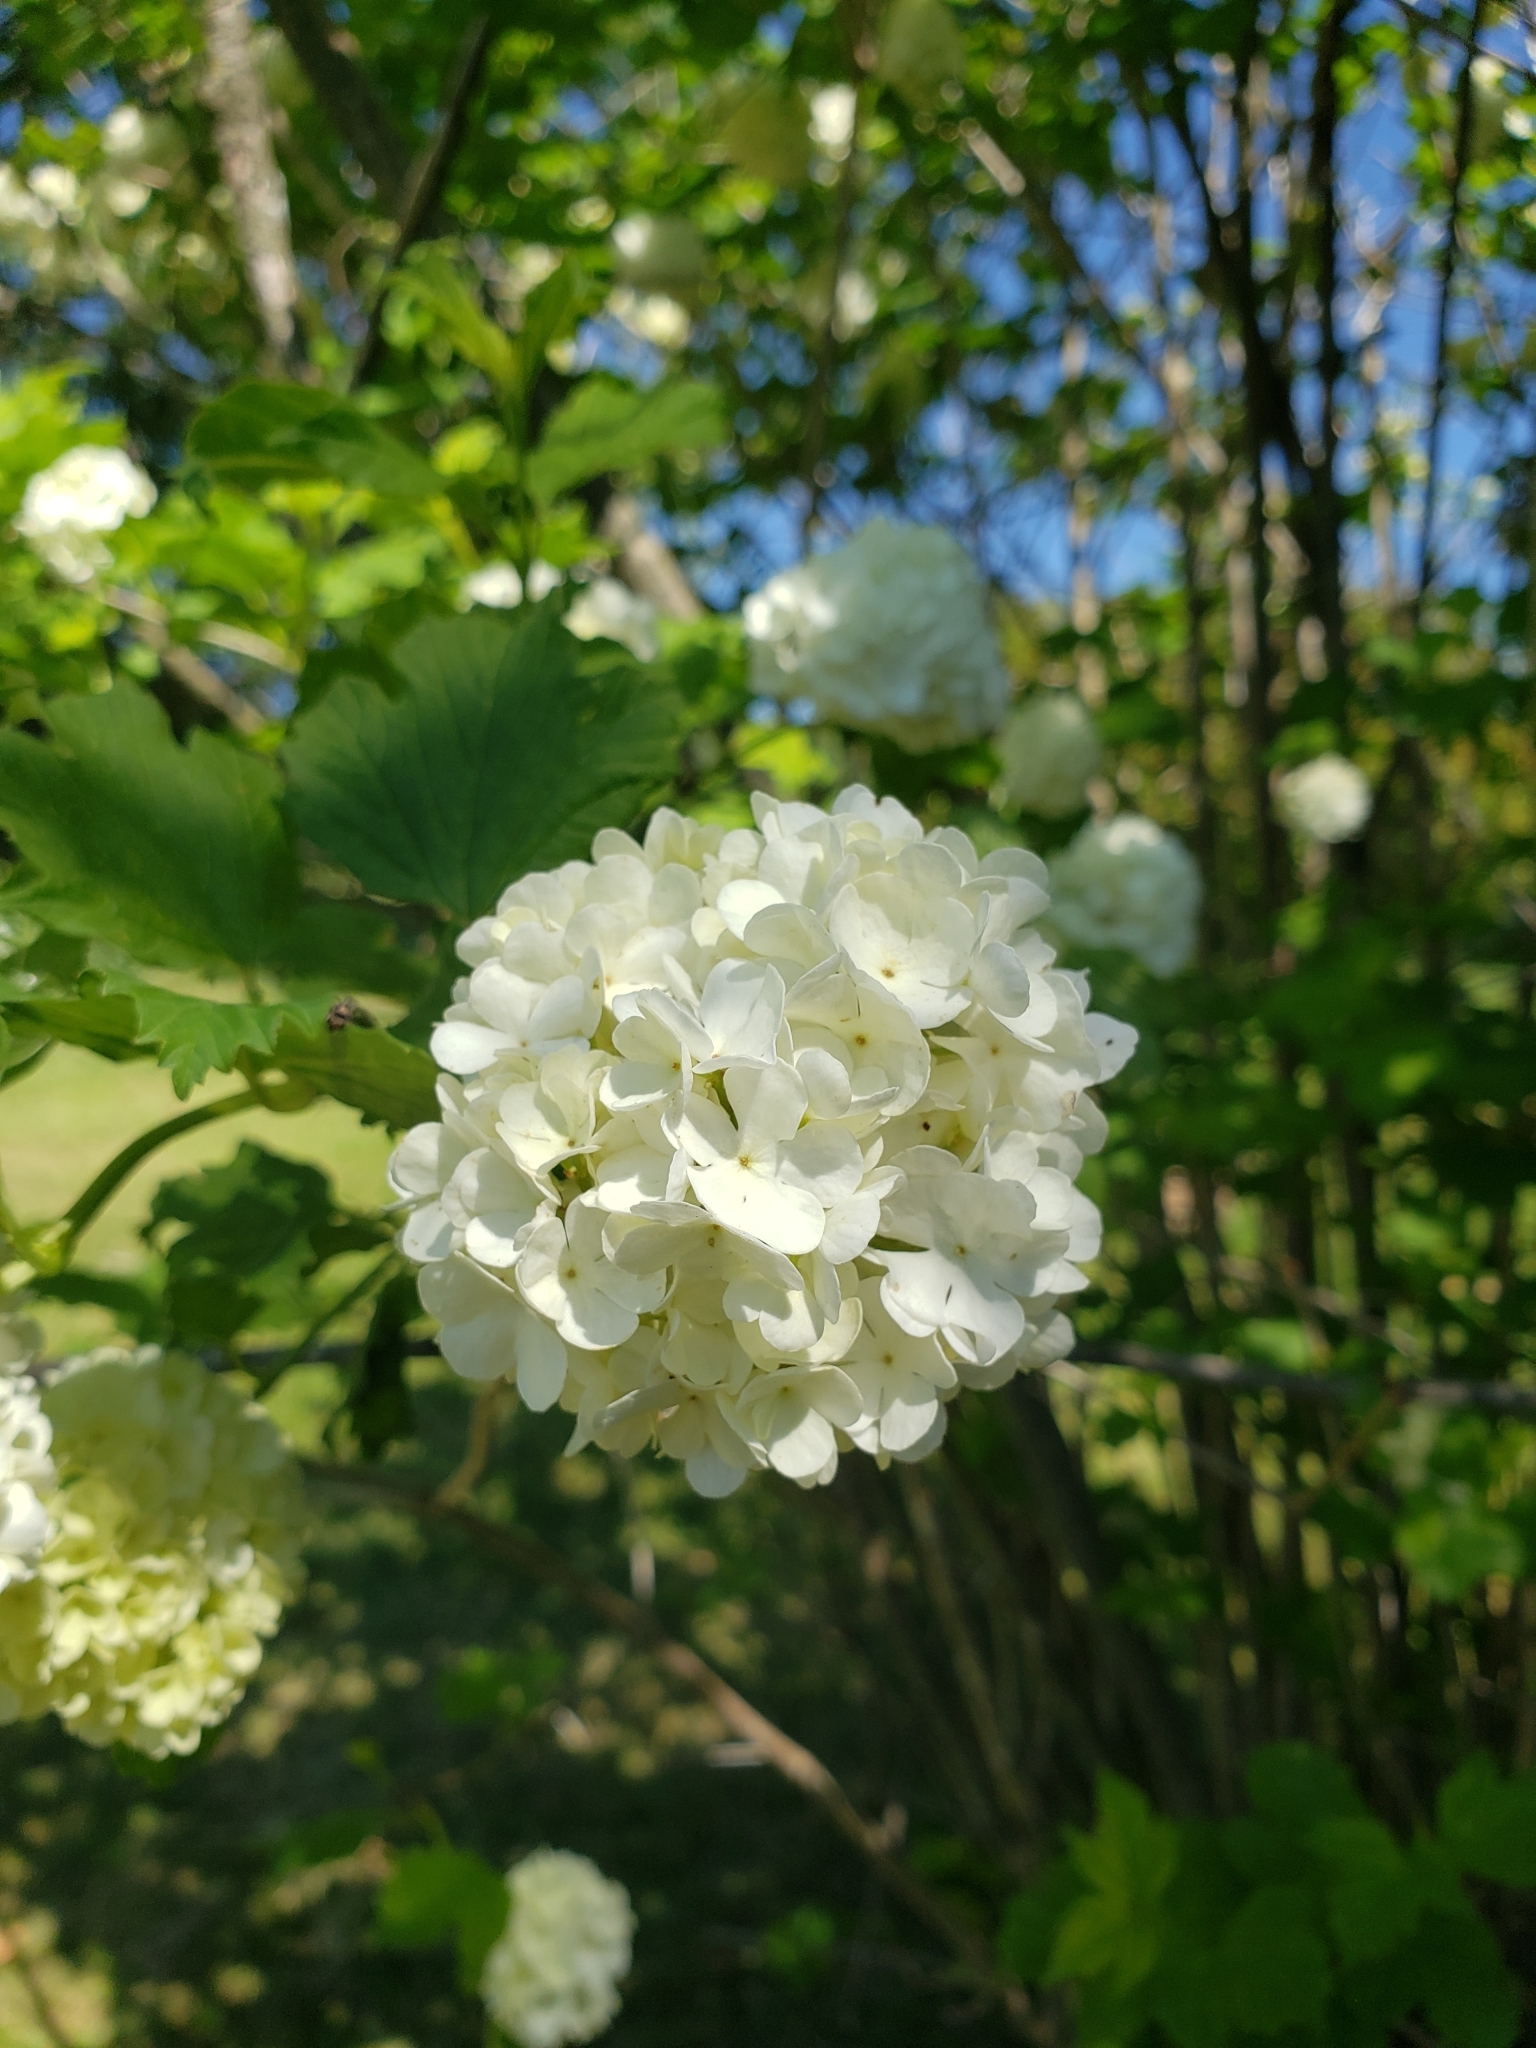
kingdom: Plantae
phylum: Tracheophyta
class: Magnoliopsida
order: Dipsacales
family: Viburnaceae
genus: Viburnum
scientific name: Viburnum opulus
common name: Guelder-rose
